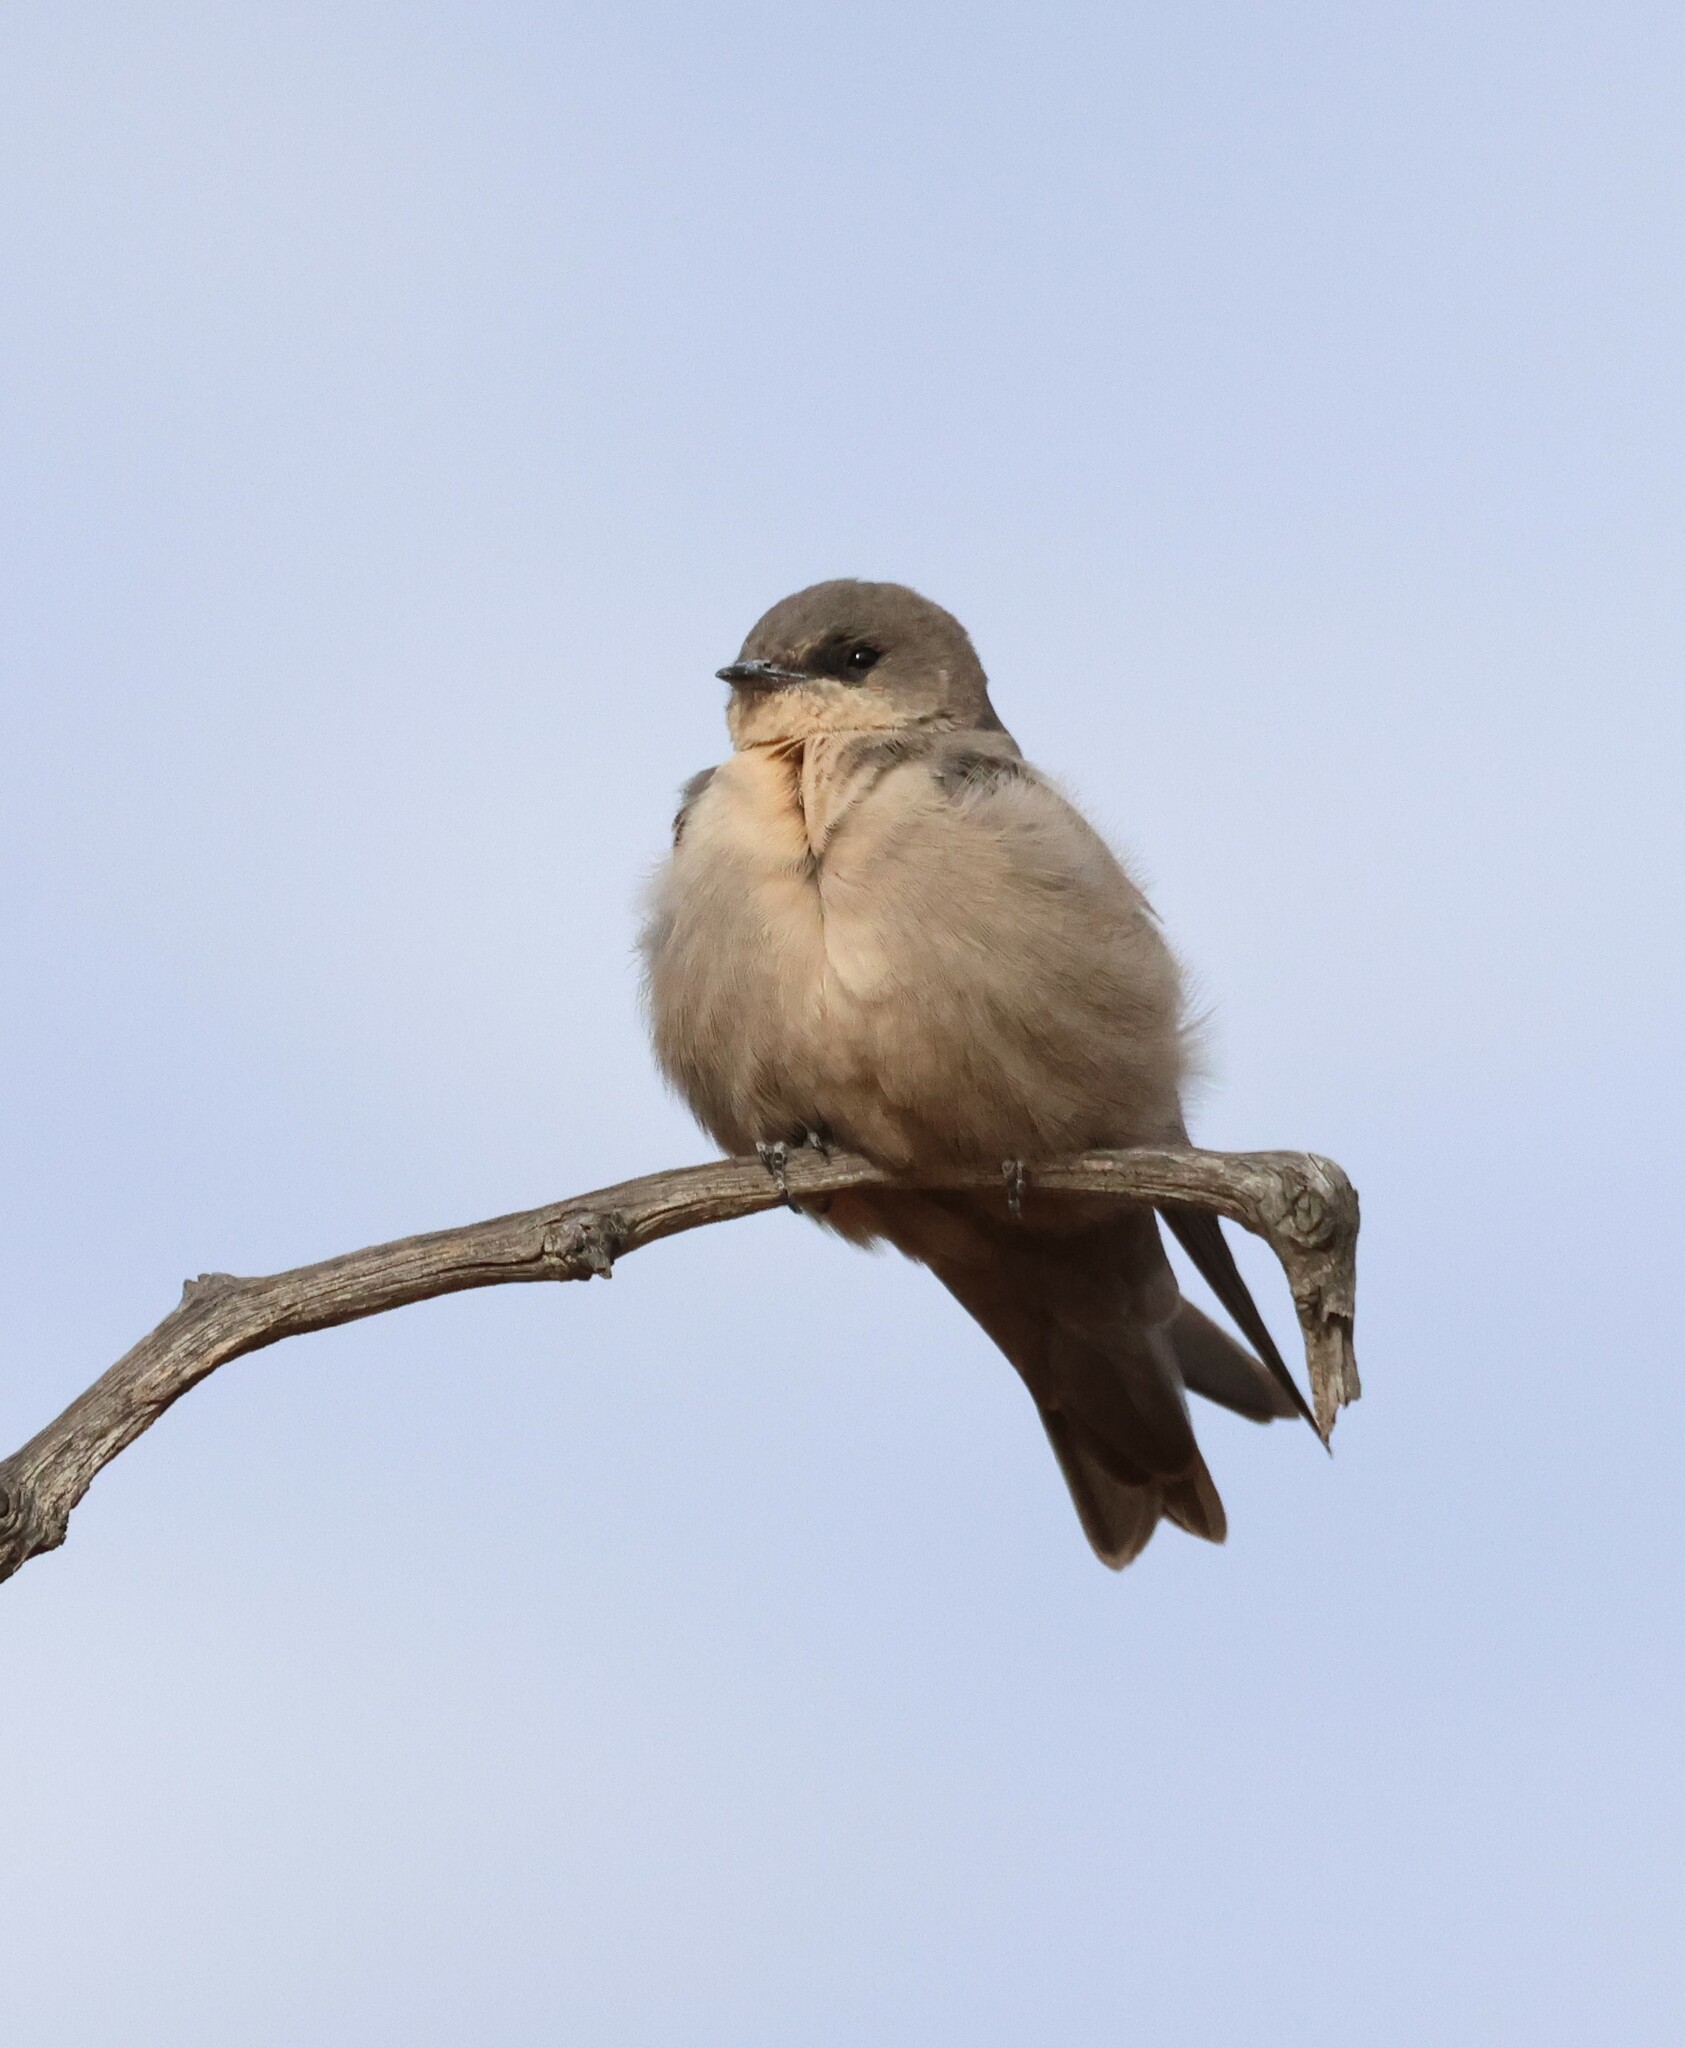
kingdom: Animalia
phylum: Chordata
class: Aves
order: Passeriformes
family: Hirundinidae
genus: Ptyonoprogne
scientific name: Ptyonoprogne fuligula
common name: Rock martin
